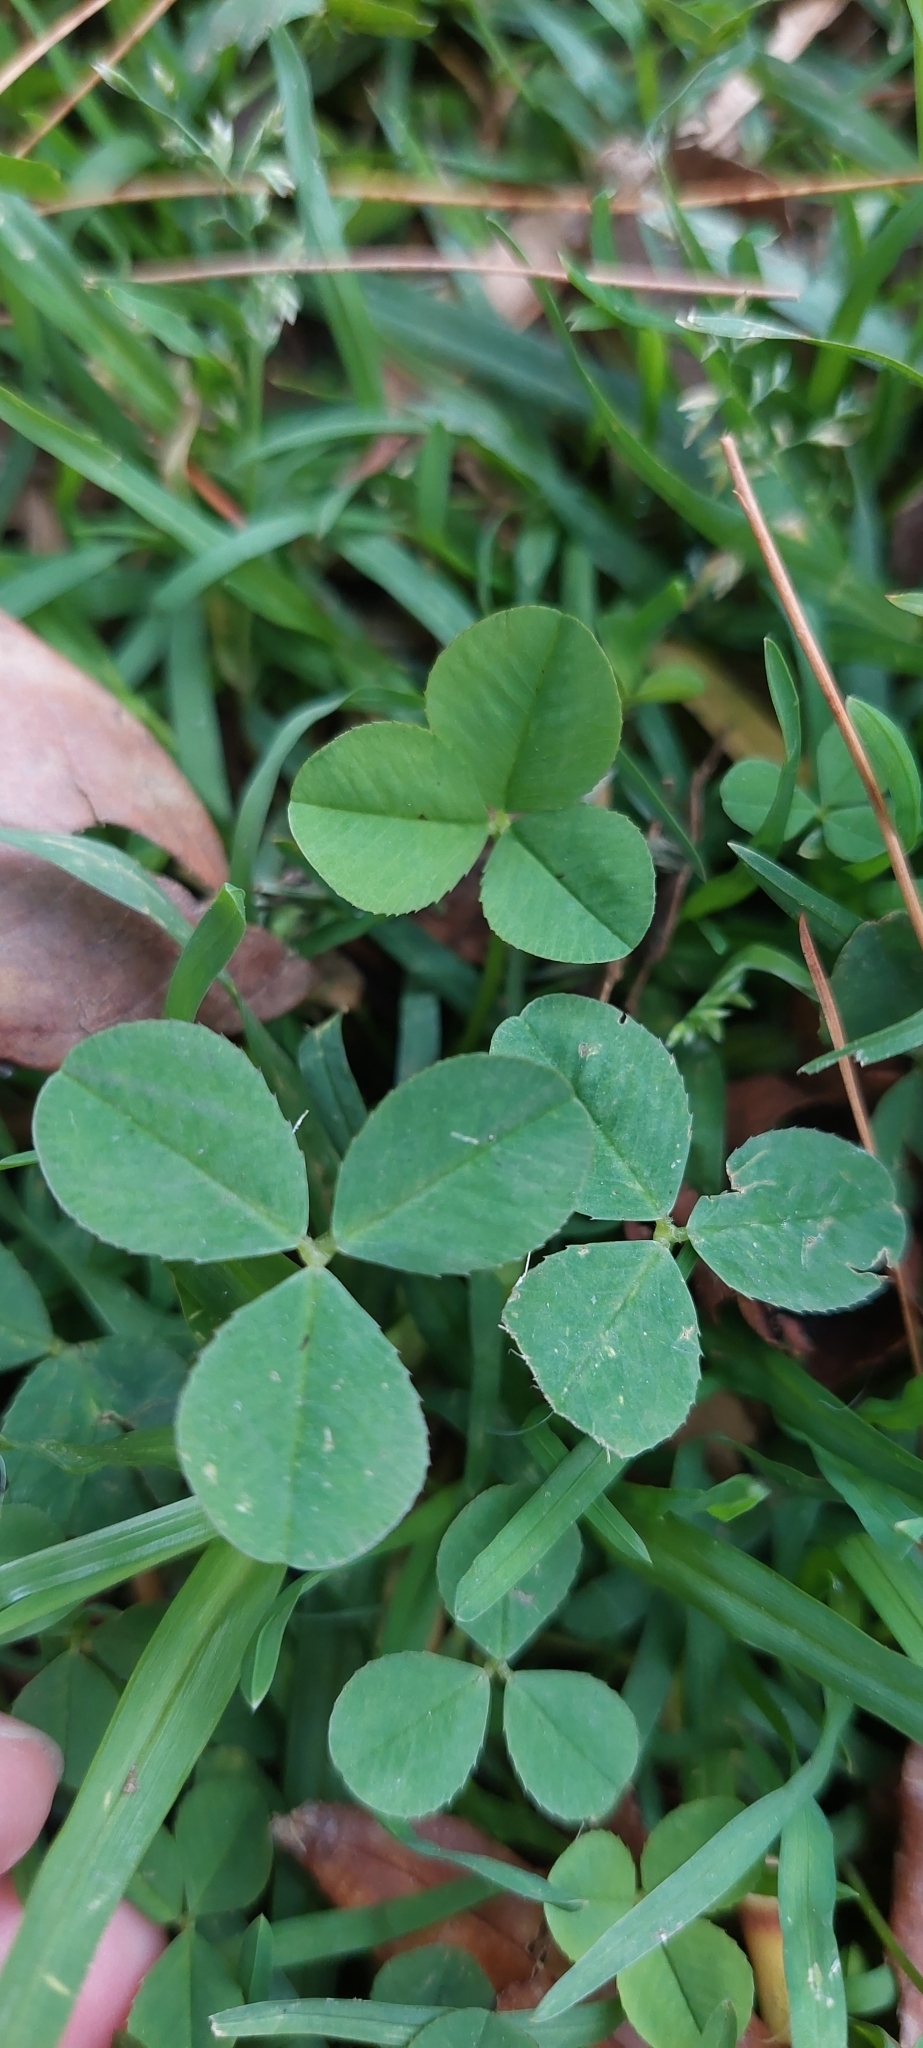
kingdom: Plantae
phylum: Tracheophyta
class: Magnoliopsida
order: Fabales
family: Fabaceae
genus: Trifolium
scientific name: Trifolium repens
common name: White clover
